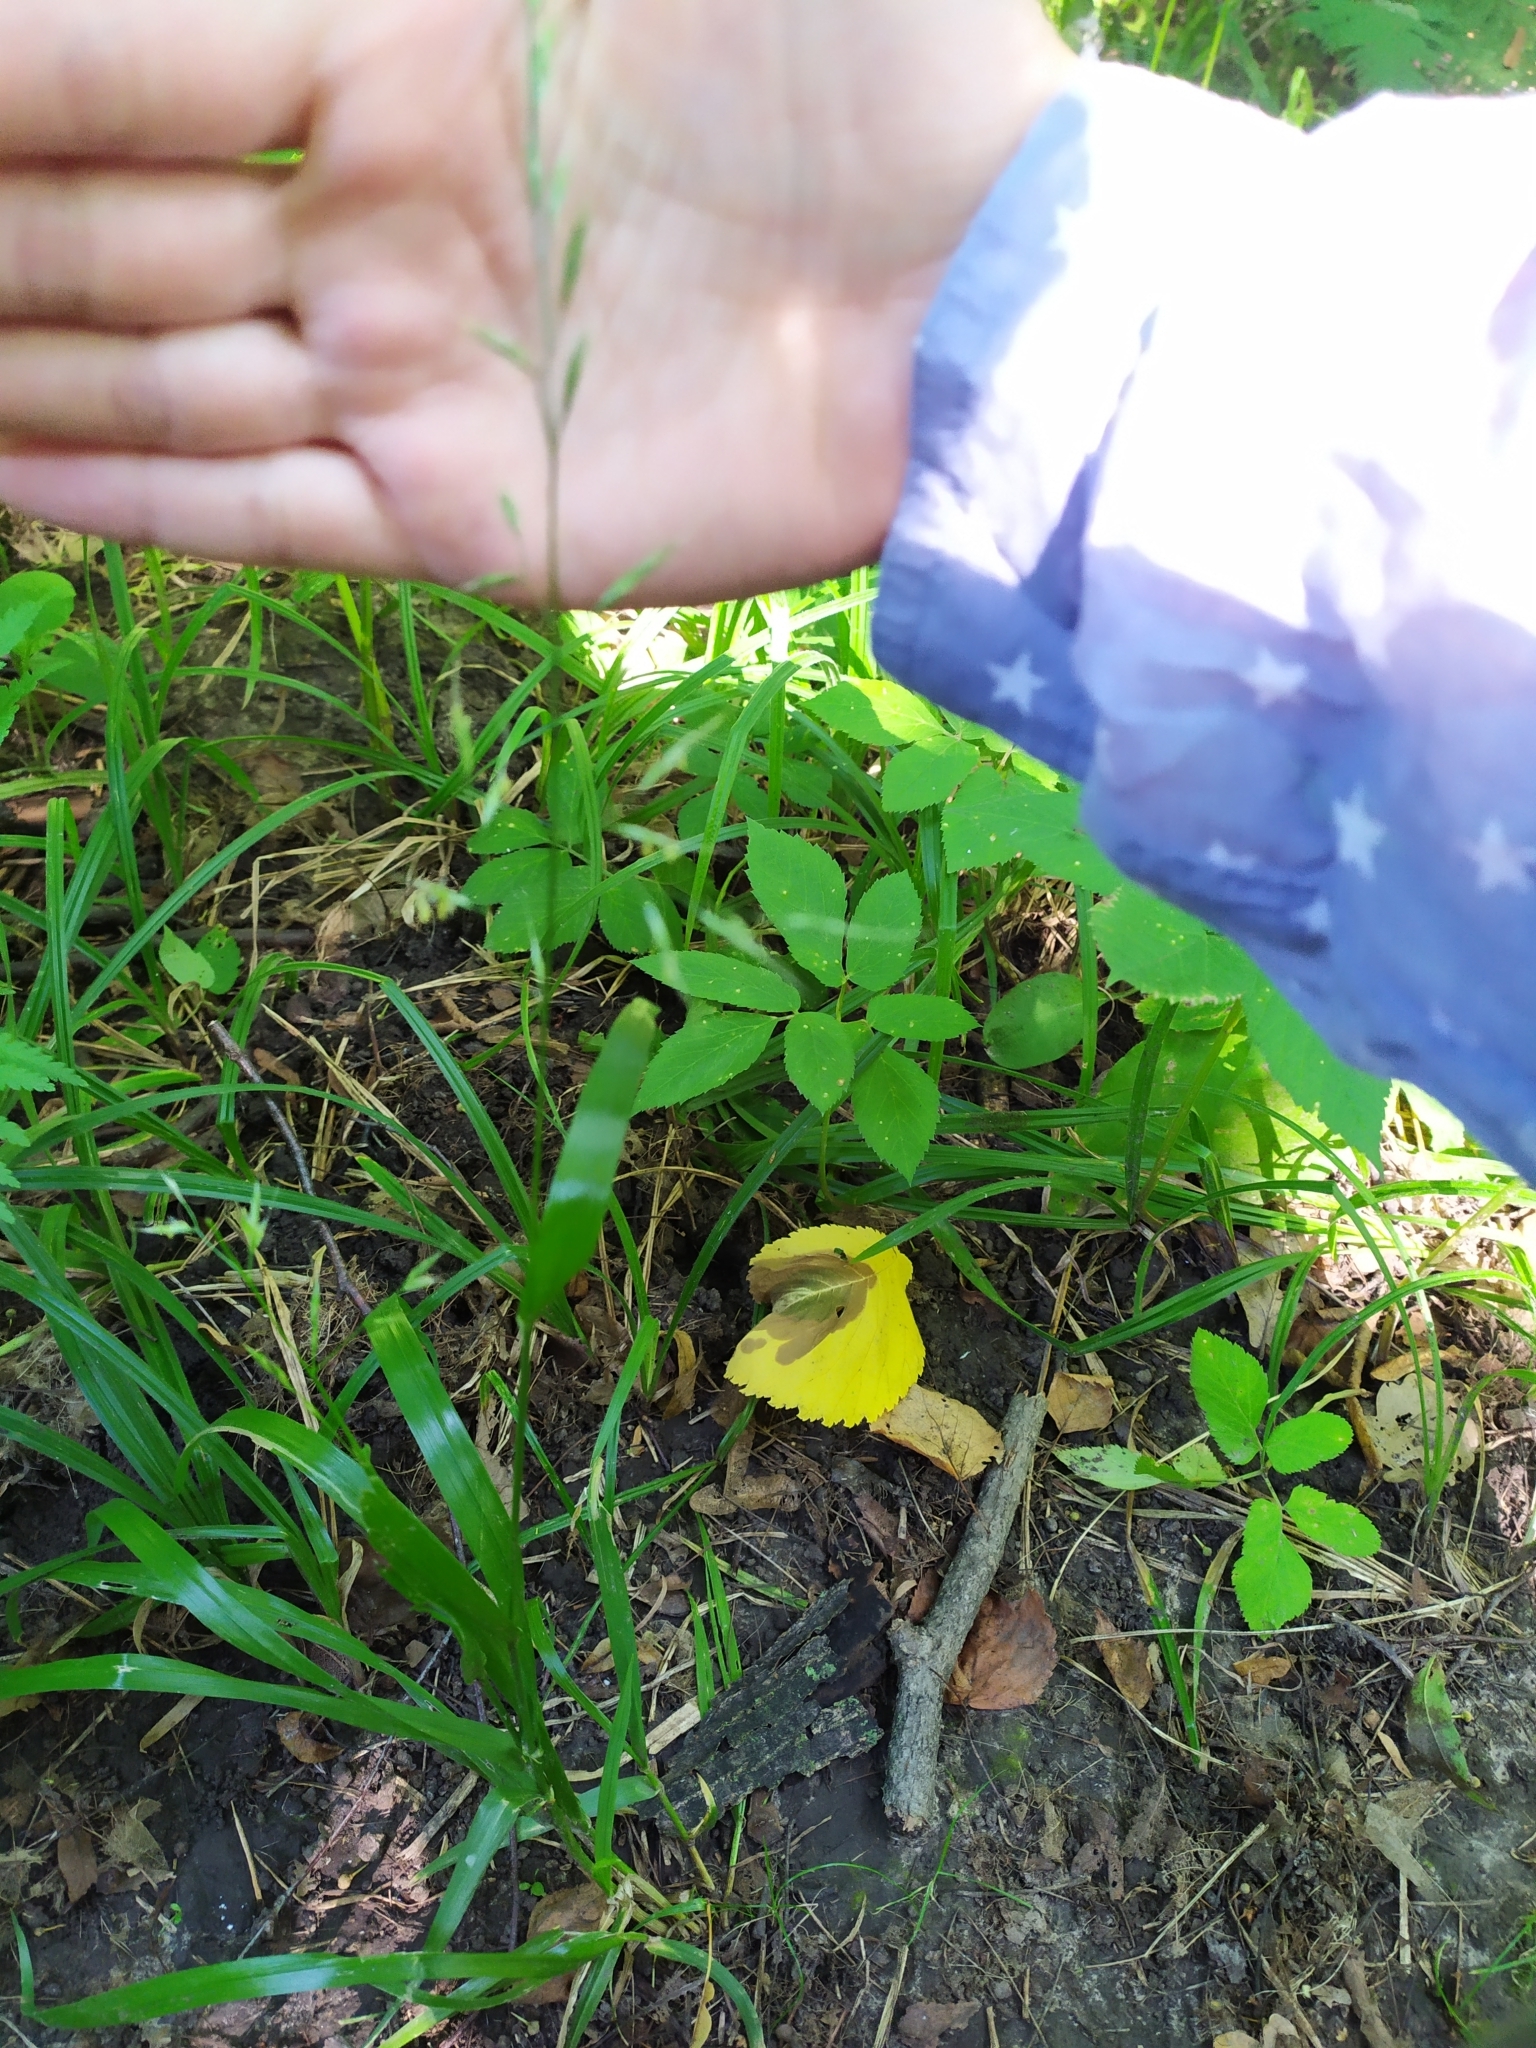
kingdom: Plantae
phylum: Tracheophyta
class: Liliopsida
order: Poales
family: Poaceae
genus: Lolium
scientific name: Lolium giganteum
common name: Giant fescue
